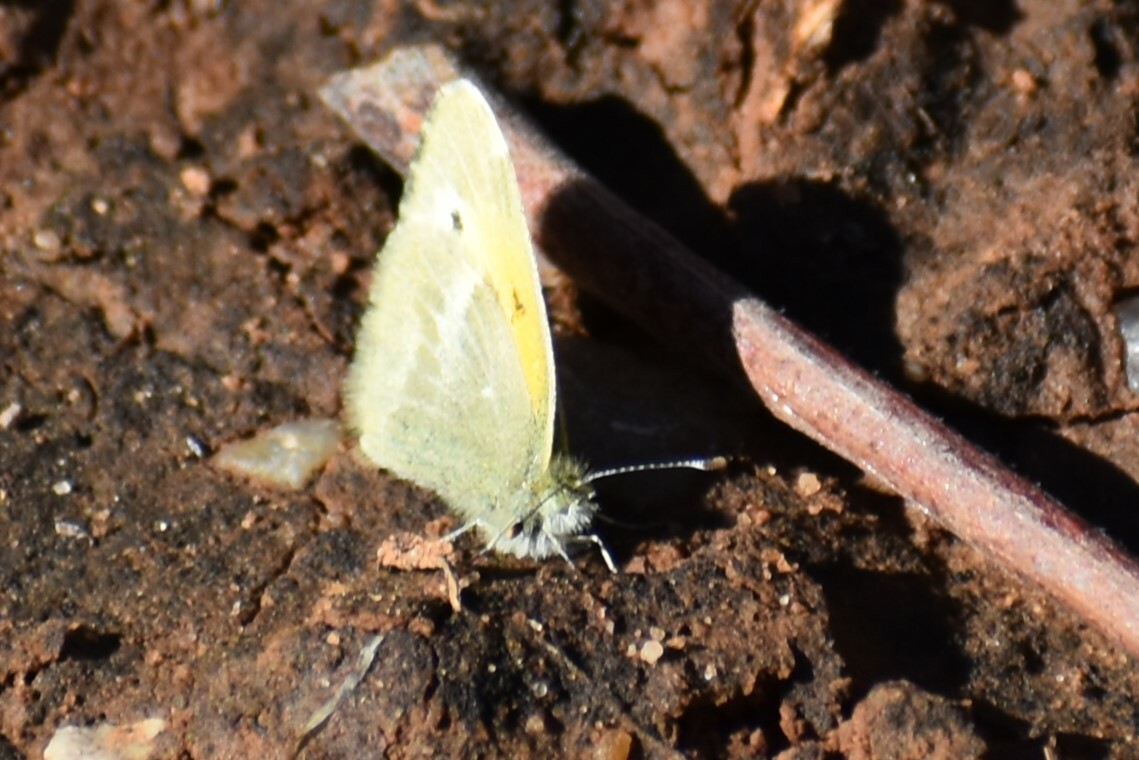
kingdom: Animalia
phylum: Arthropoda
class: Insecta
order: Lepidoptera
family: Pieridae
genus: Nathalis
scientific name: Nathalis iole
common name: Dainty sulphur
